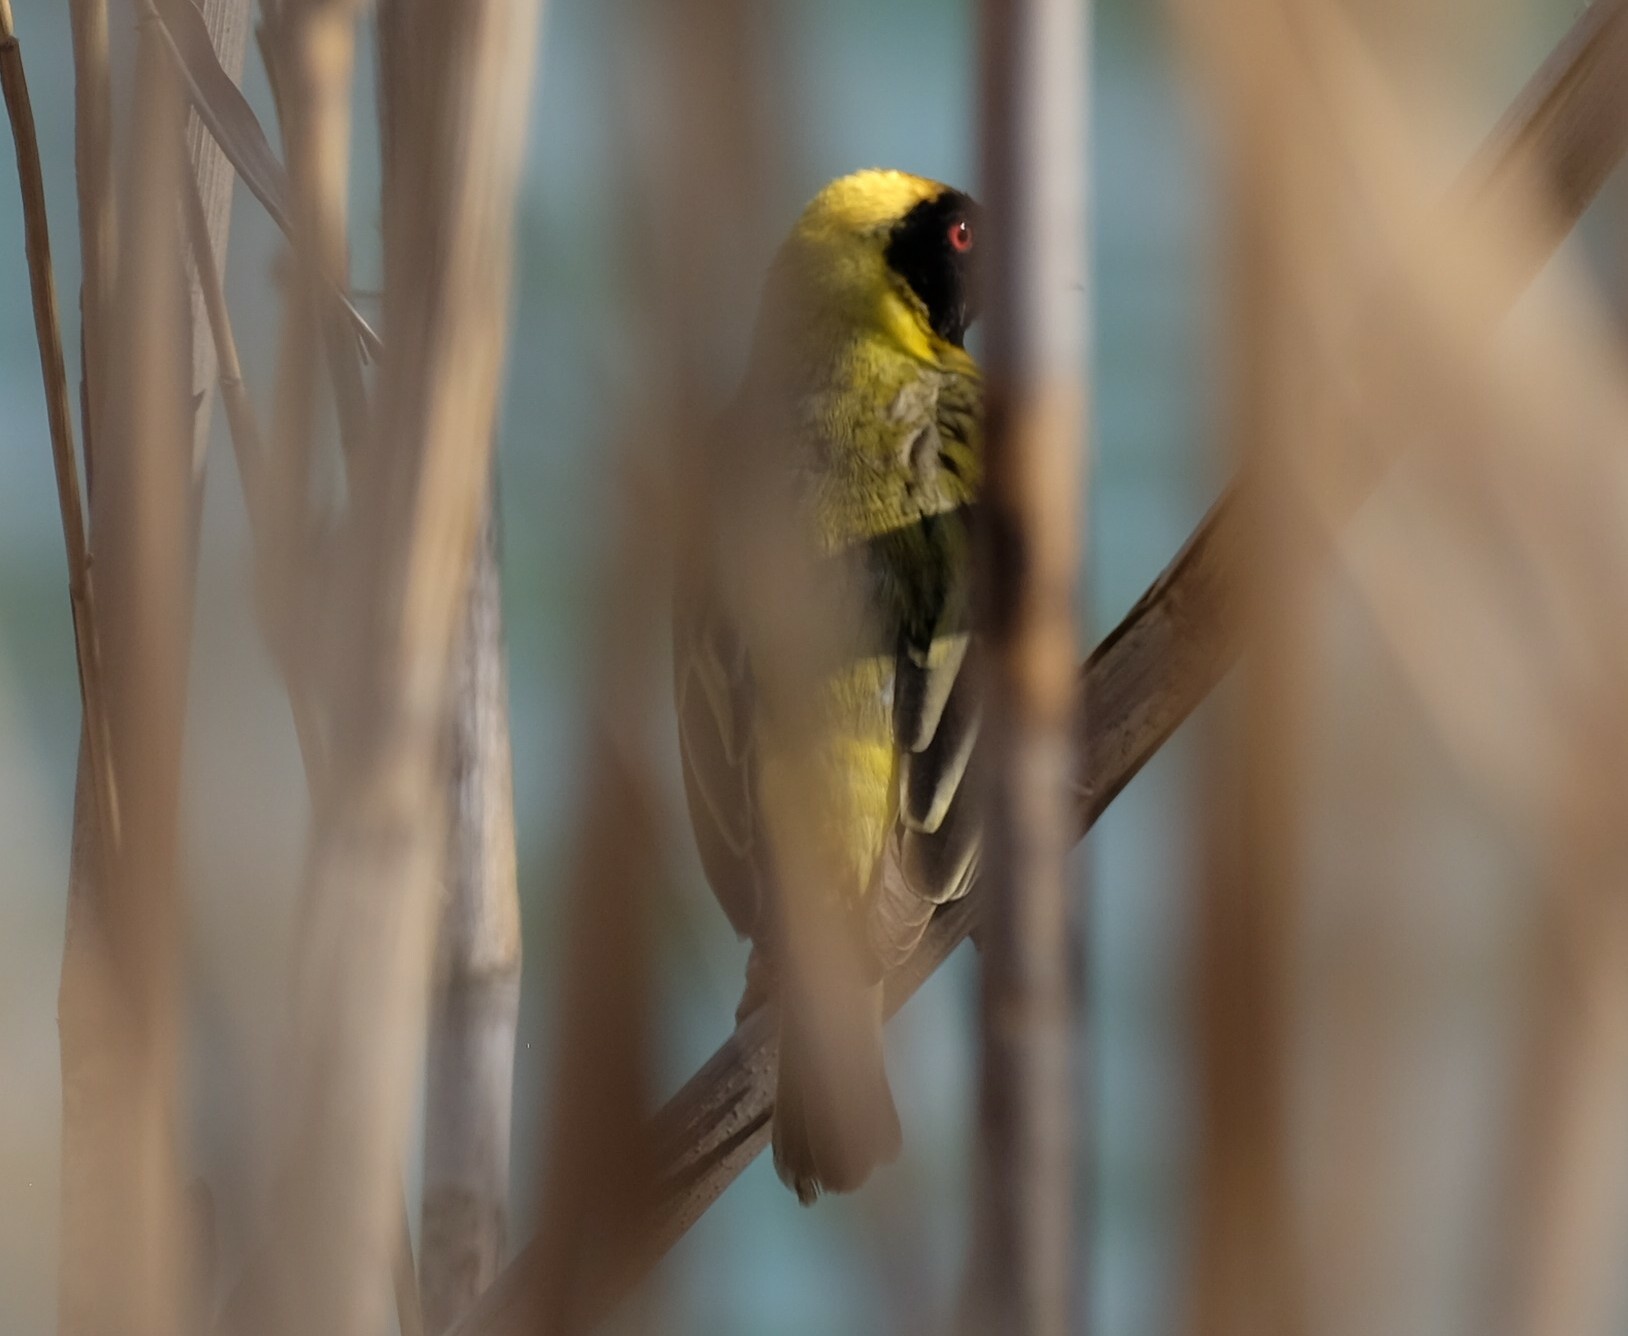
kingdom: Animalia
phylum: Chordata
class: Aves
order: Passeriformes
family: Ploceidae
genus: Ploceus
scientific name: Ploceus velatus
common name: Southern masked weaver
